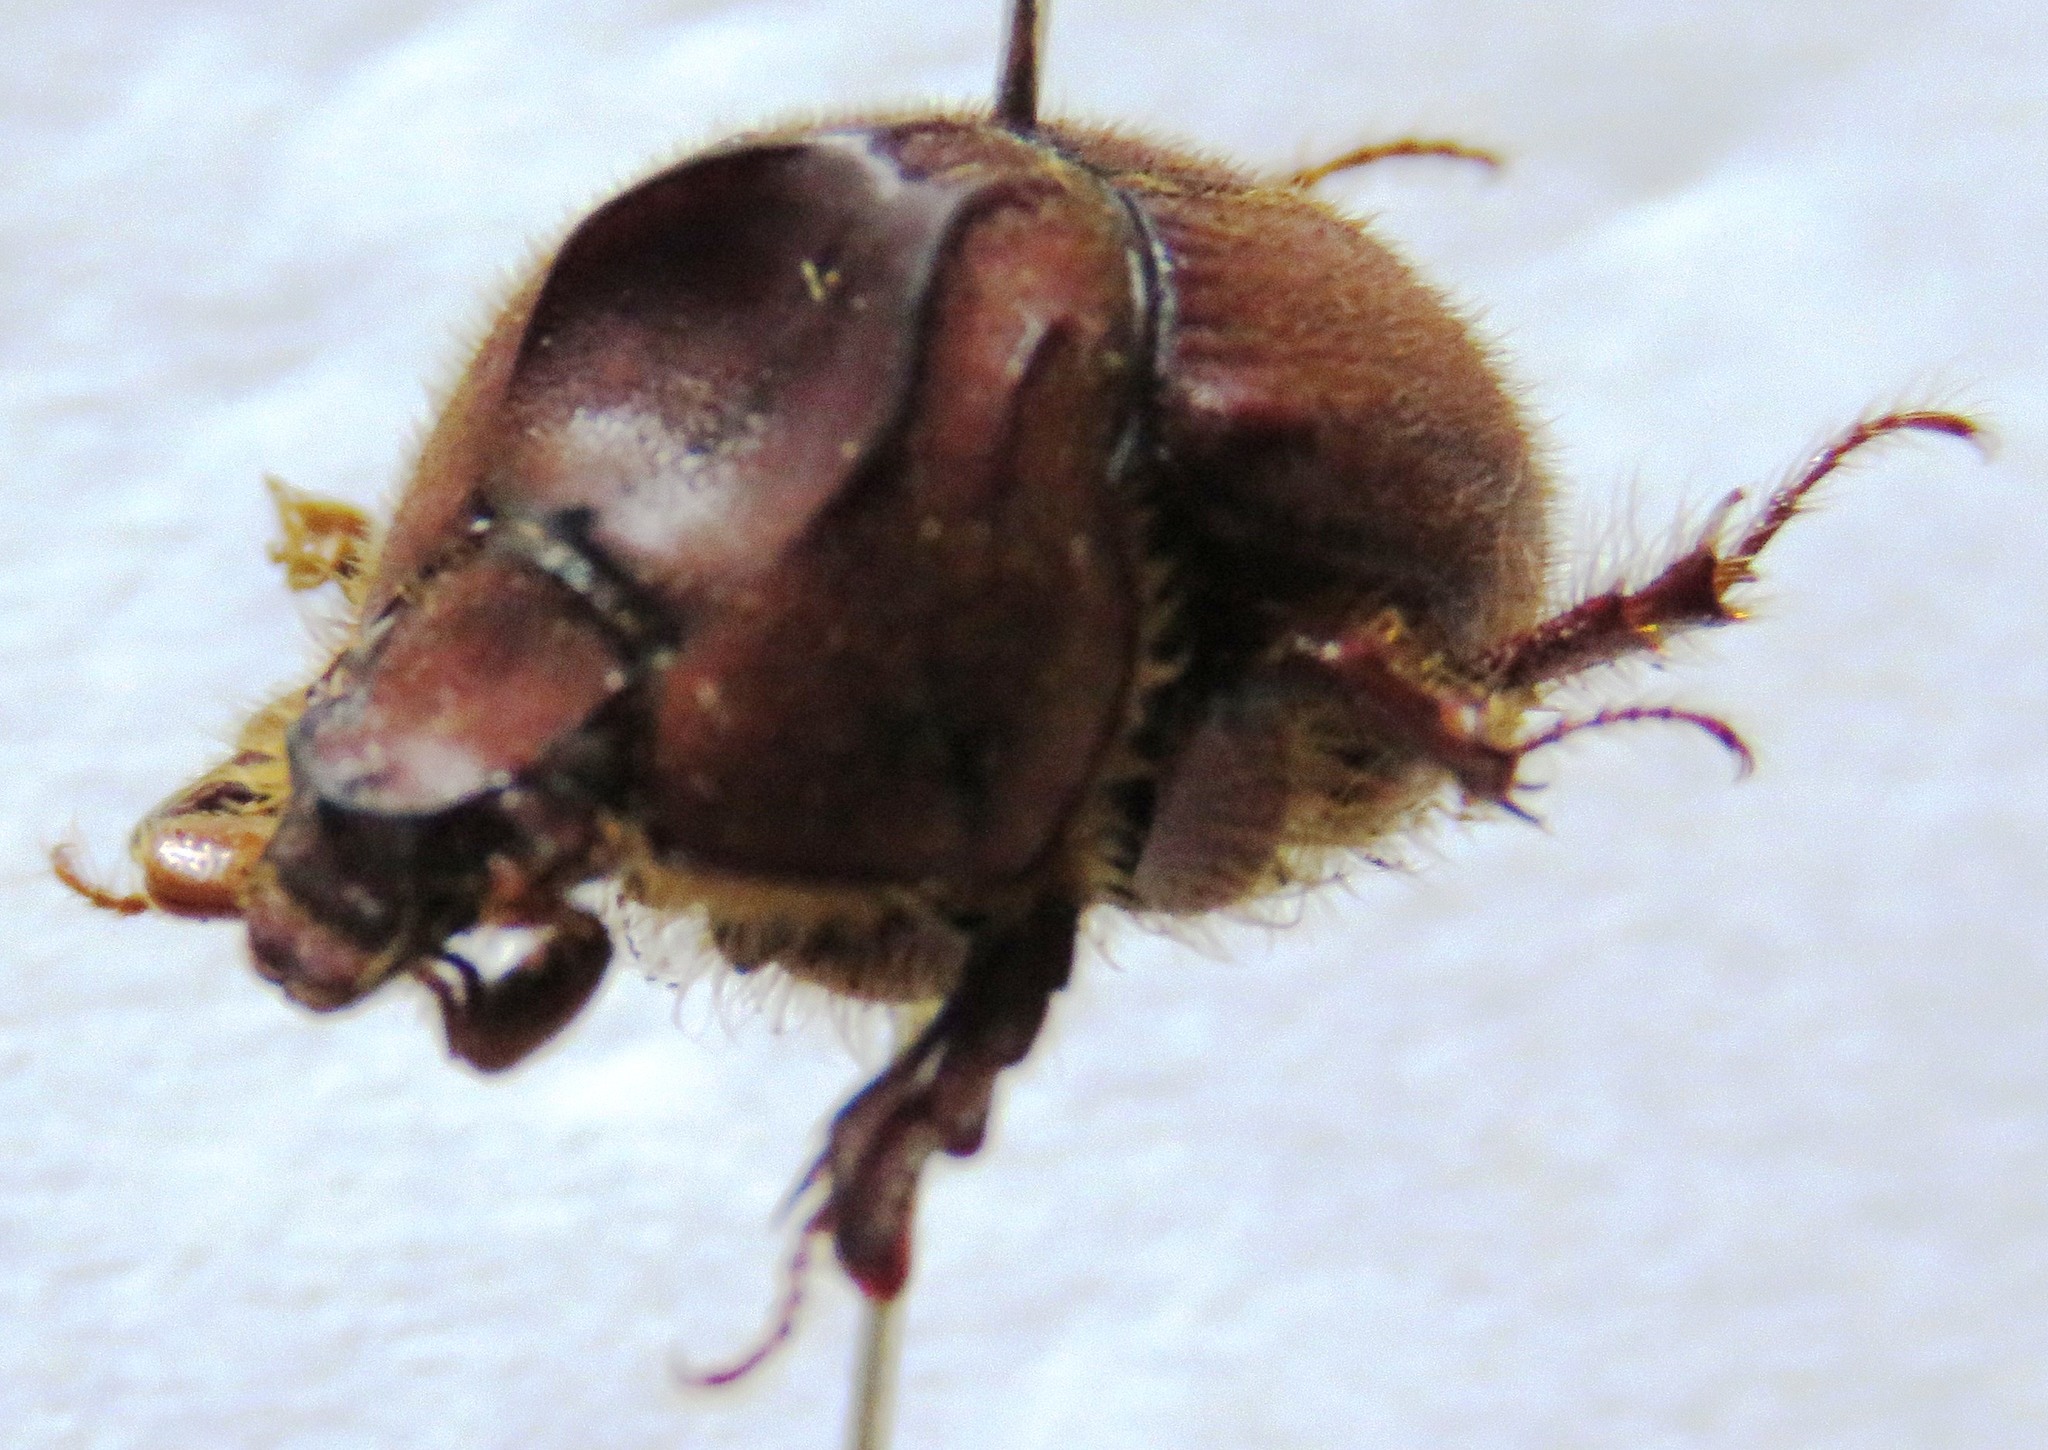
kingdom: Animalia
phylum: Arthropoda
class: Insecta
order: Coleoptera
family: Geotrupidae
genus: Neoathyreus
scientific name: Neoathyreus excavatus
